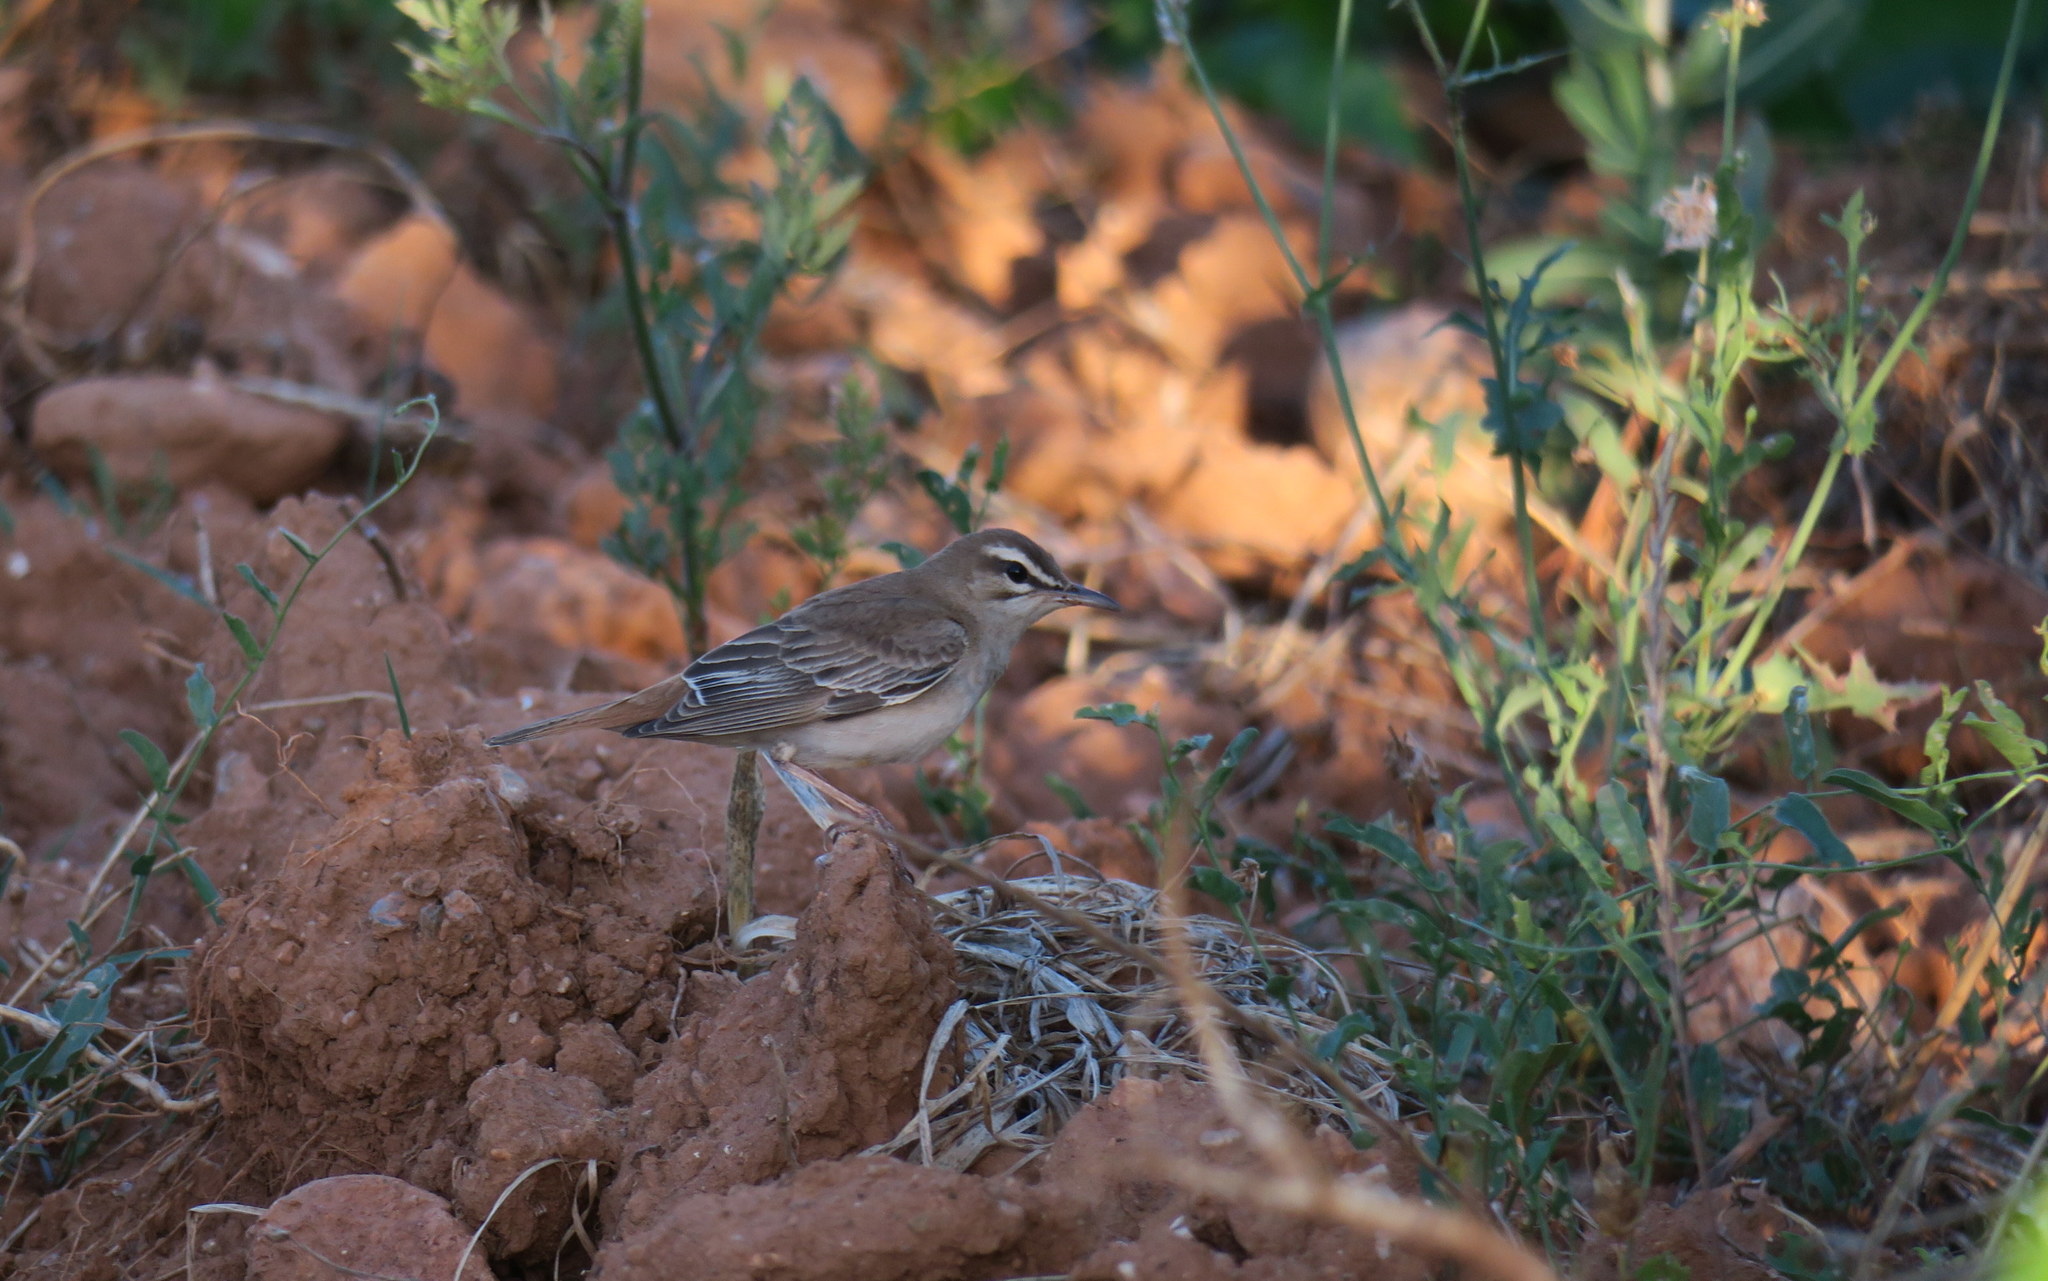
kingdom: Animalia
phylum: Chordata
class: Aves
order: Passeriformes
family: Muscicapidae
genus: Erythropygia
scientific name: Erythropygia galactotes
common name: Rufous-tailed scrub robin
